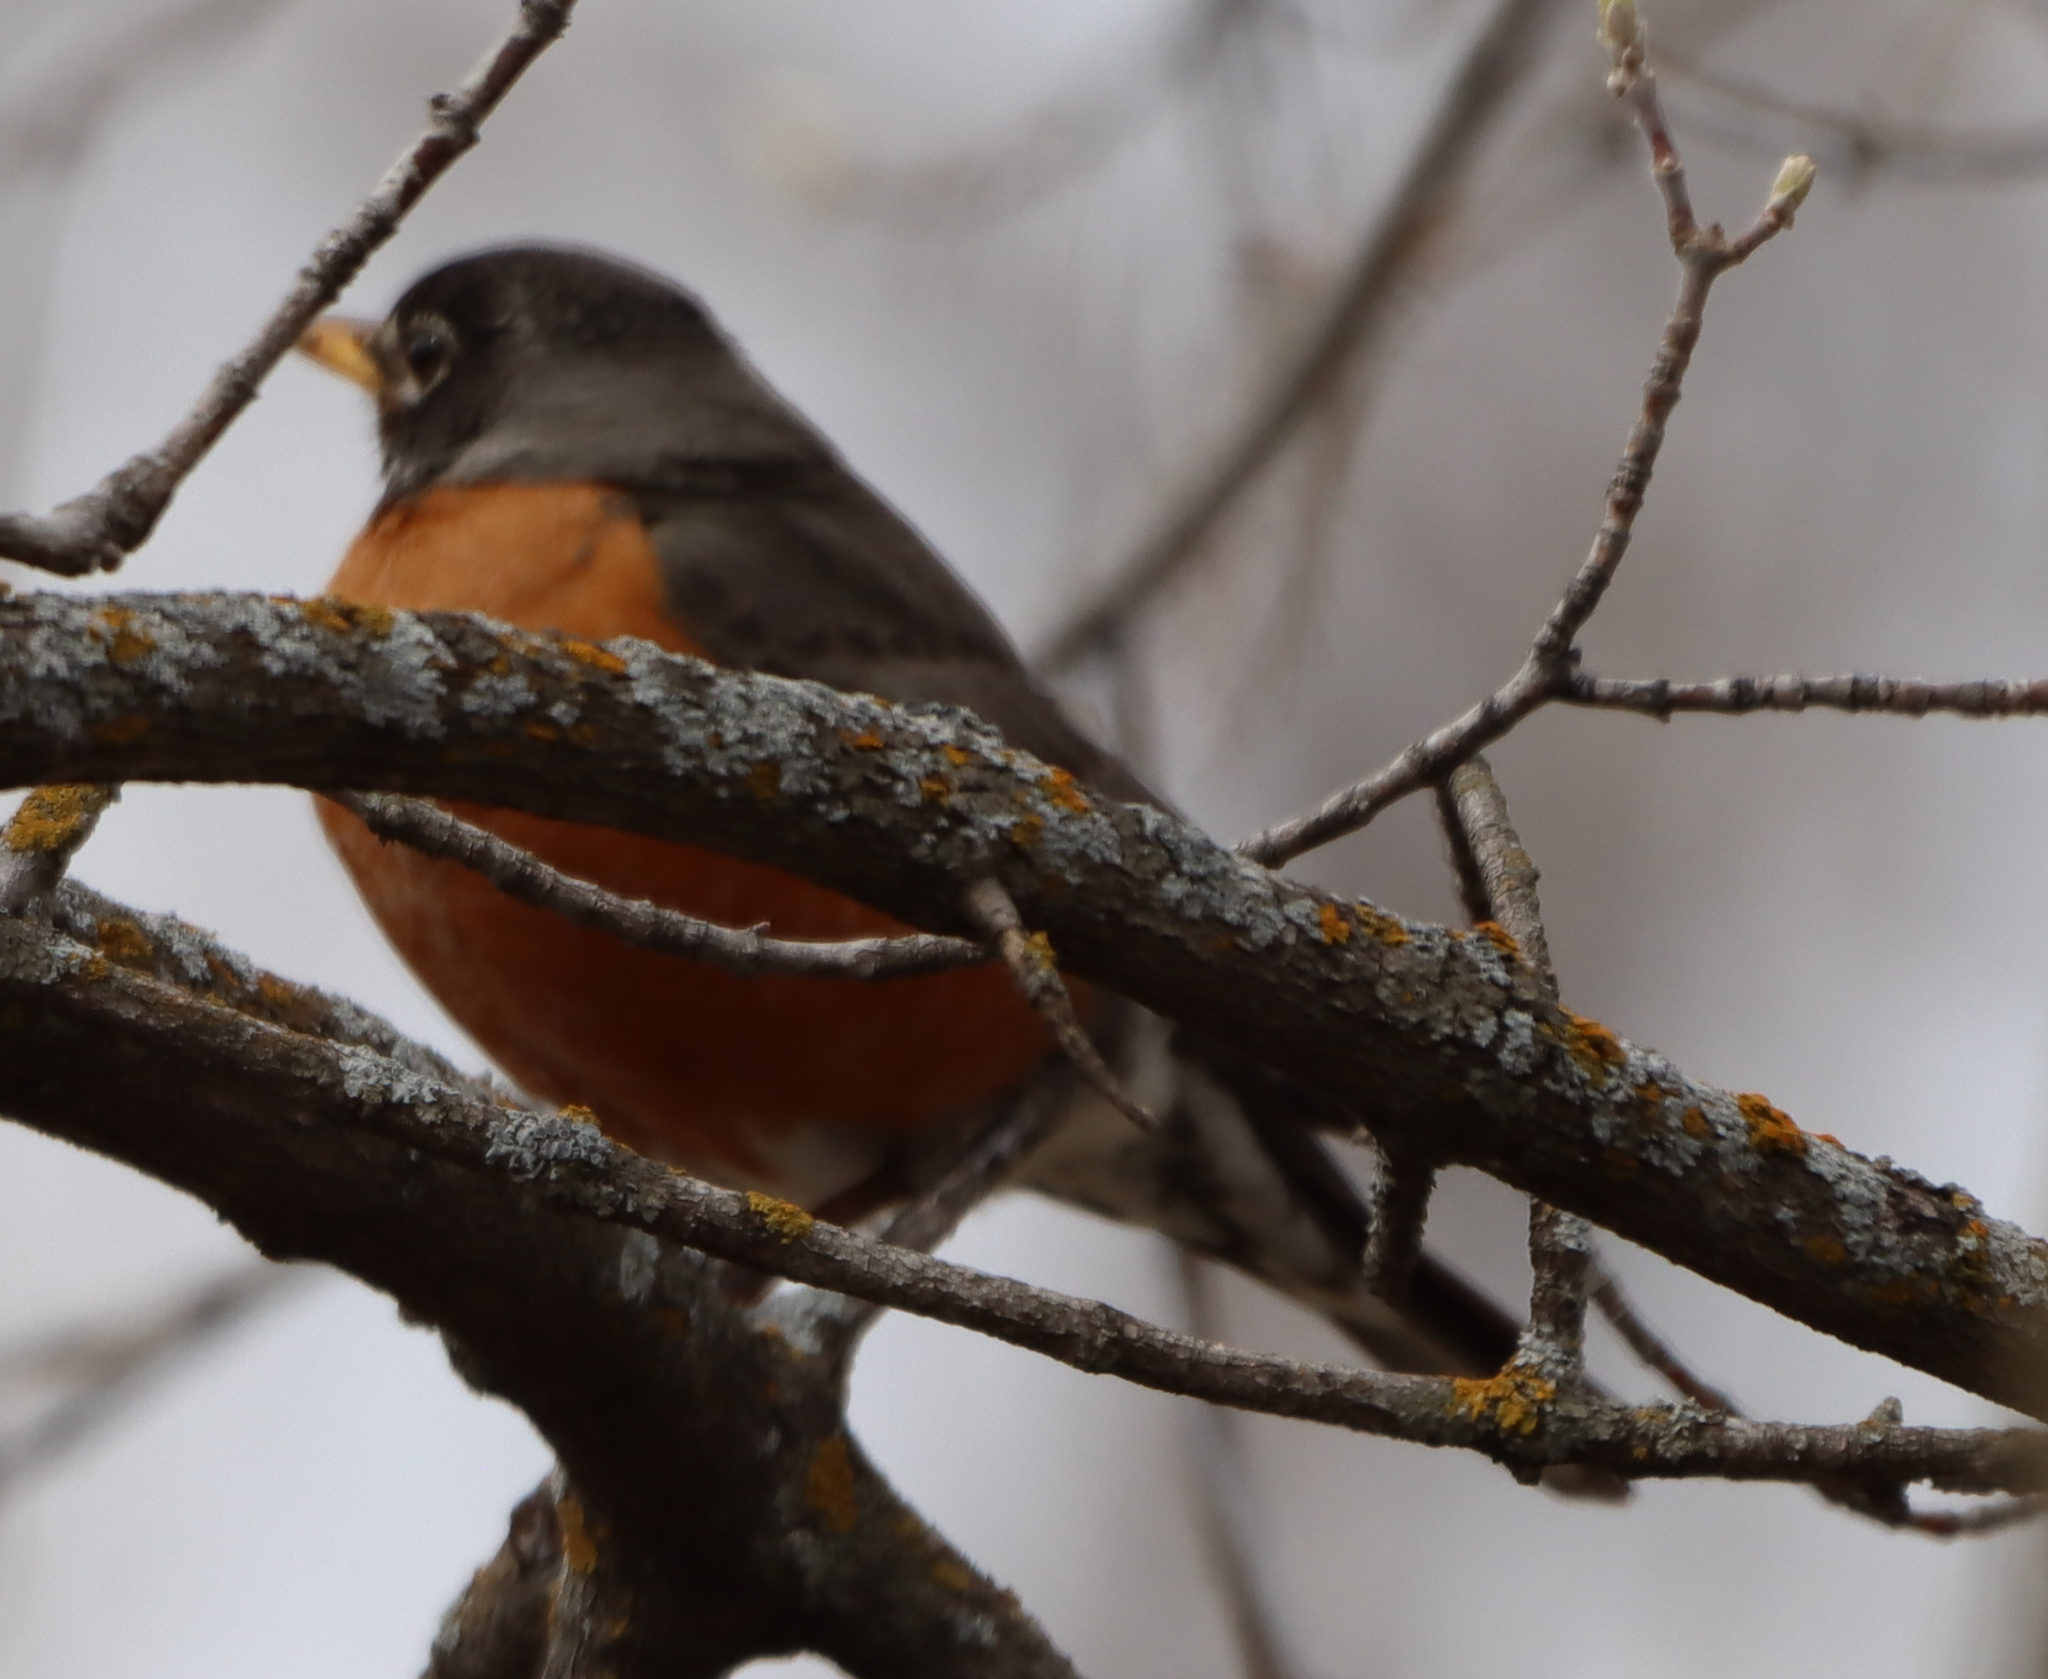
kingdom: Animalia
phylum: Chordata
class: Aves
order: Passeriformes
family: Turdidae
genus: Turdus
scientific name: Turdus migratorius
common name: American robin
